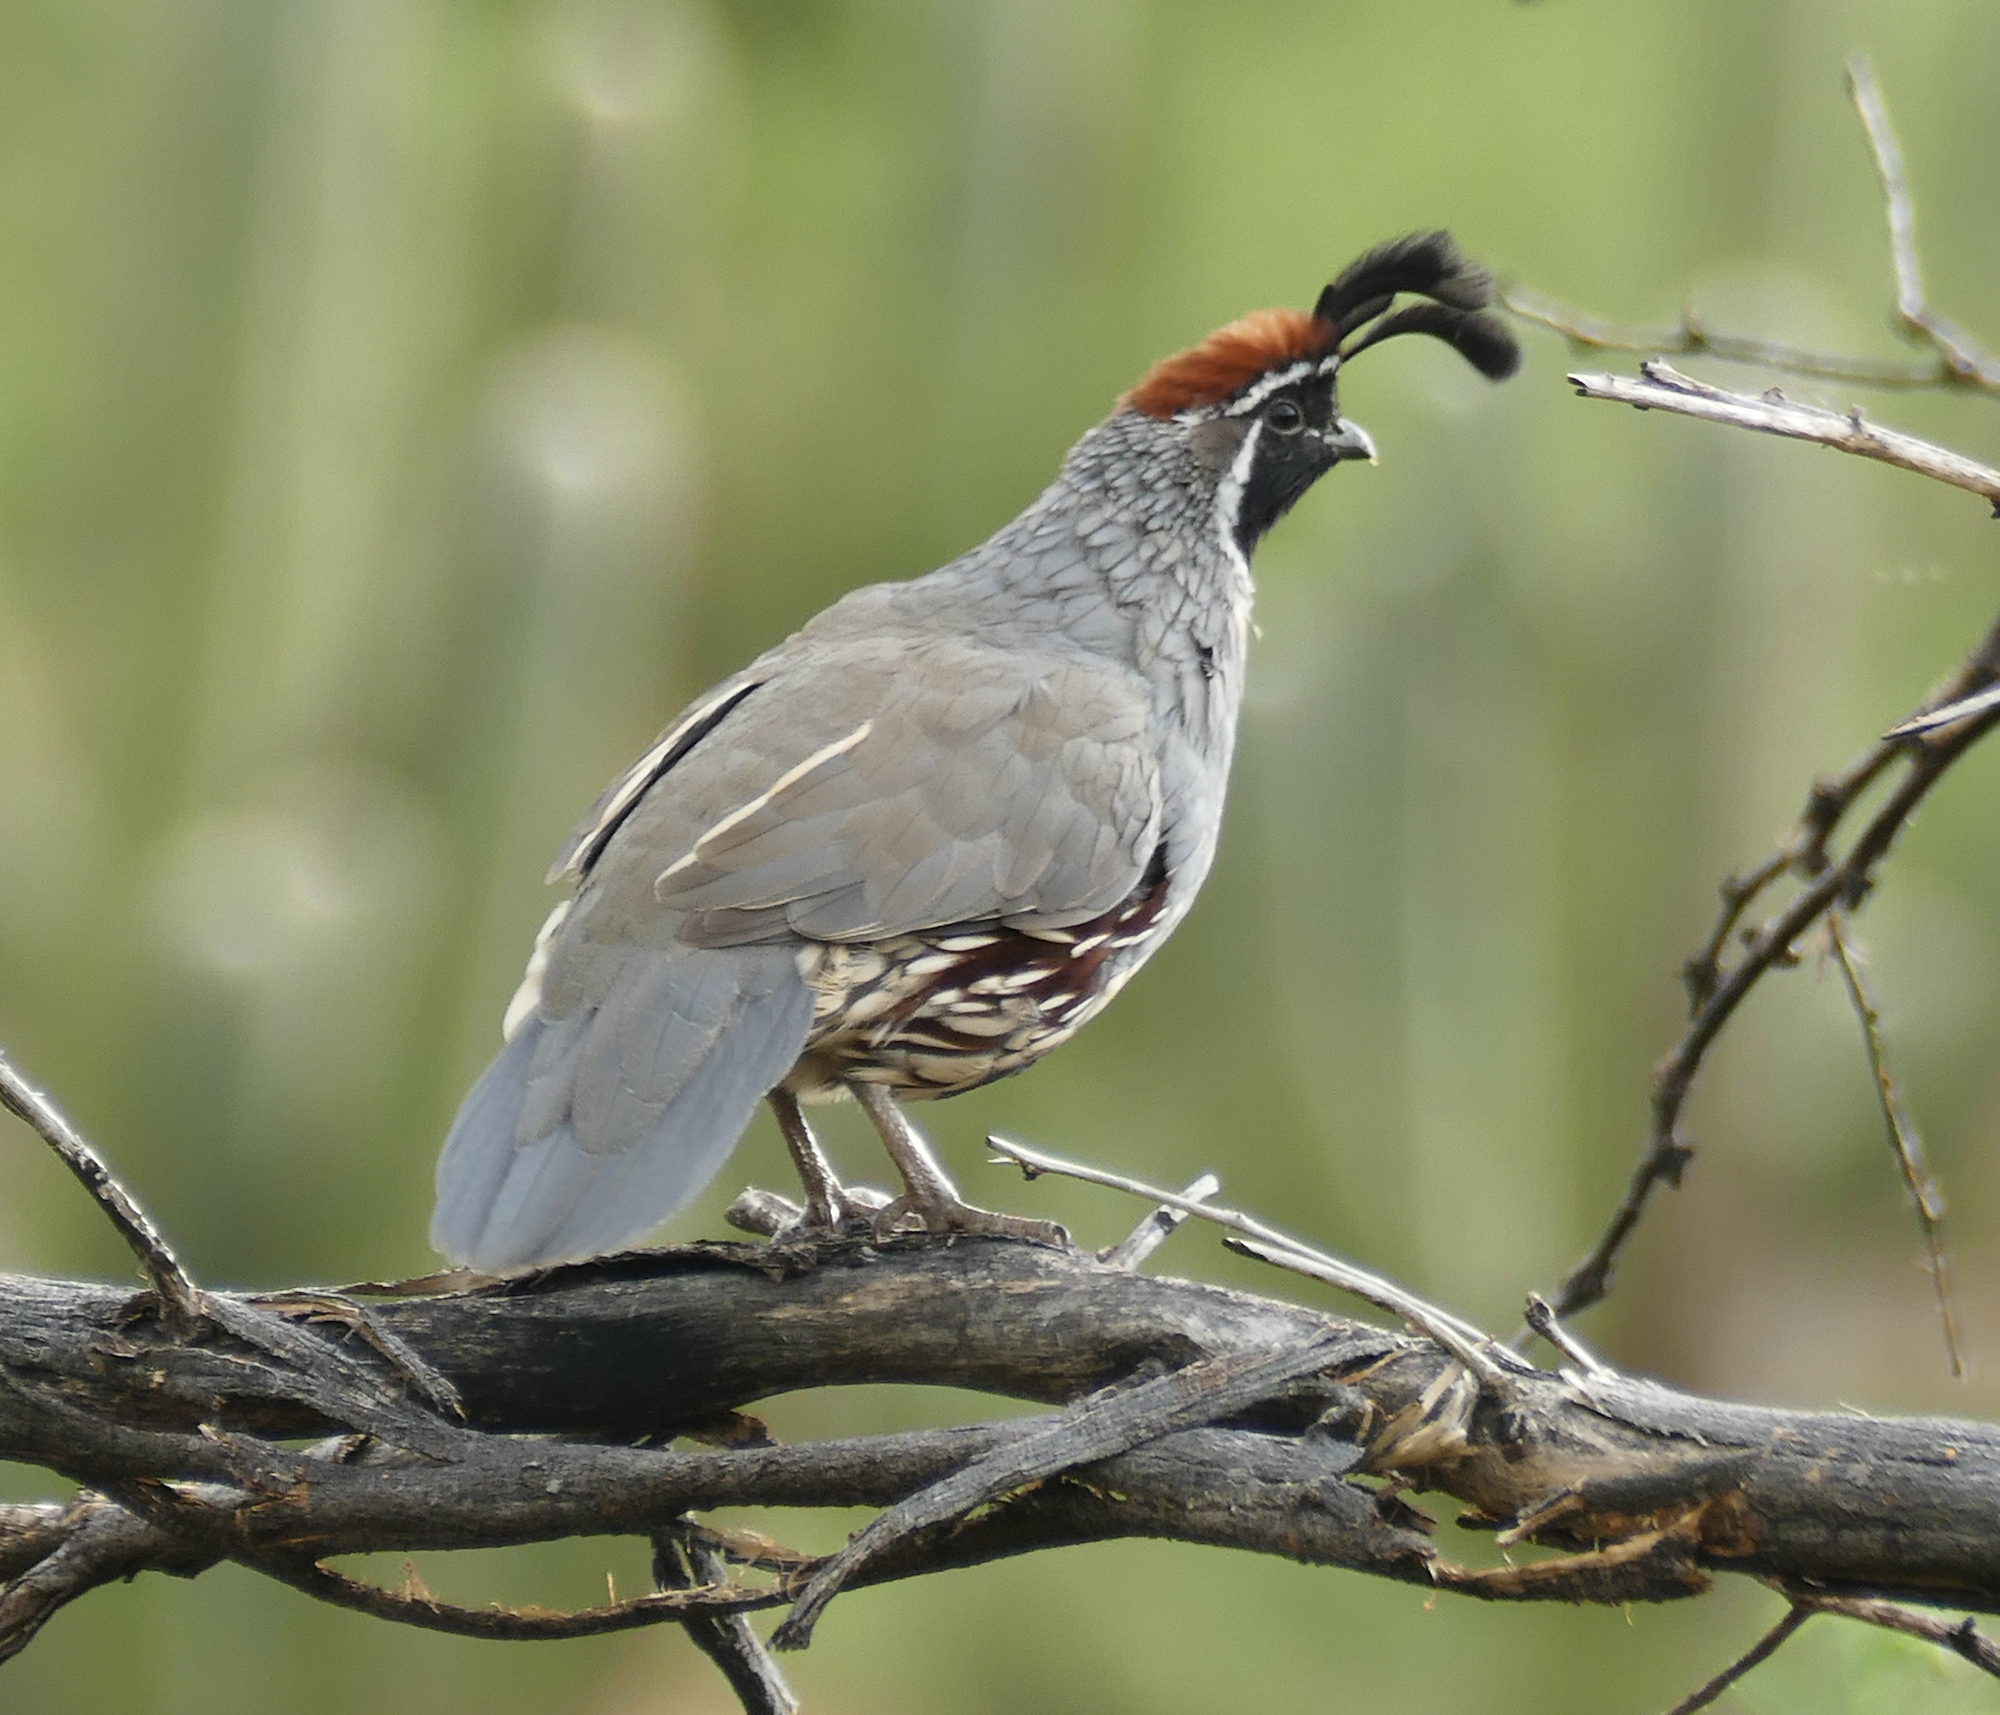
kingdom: Animalia
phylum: Chordata
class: Aves
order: Galliformes
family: Odontophoridae
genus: Callipepla
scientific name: Callipepla gambelii
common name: Gambel's quail
